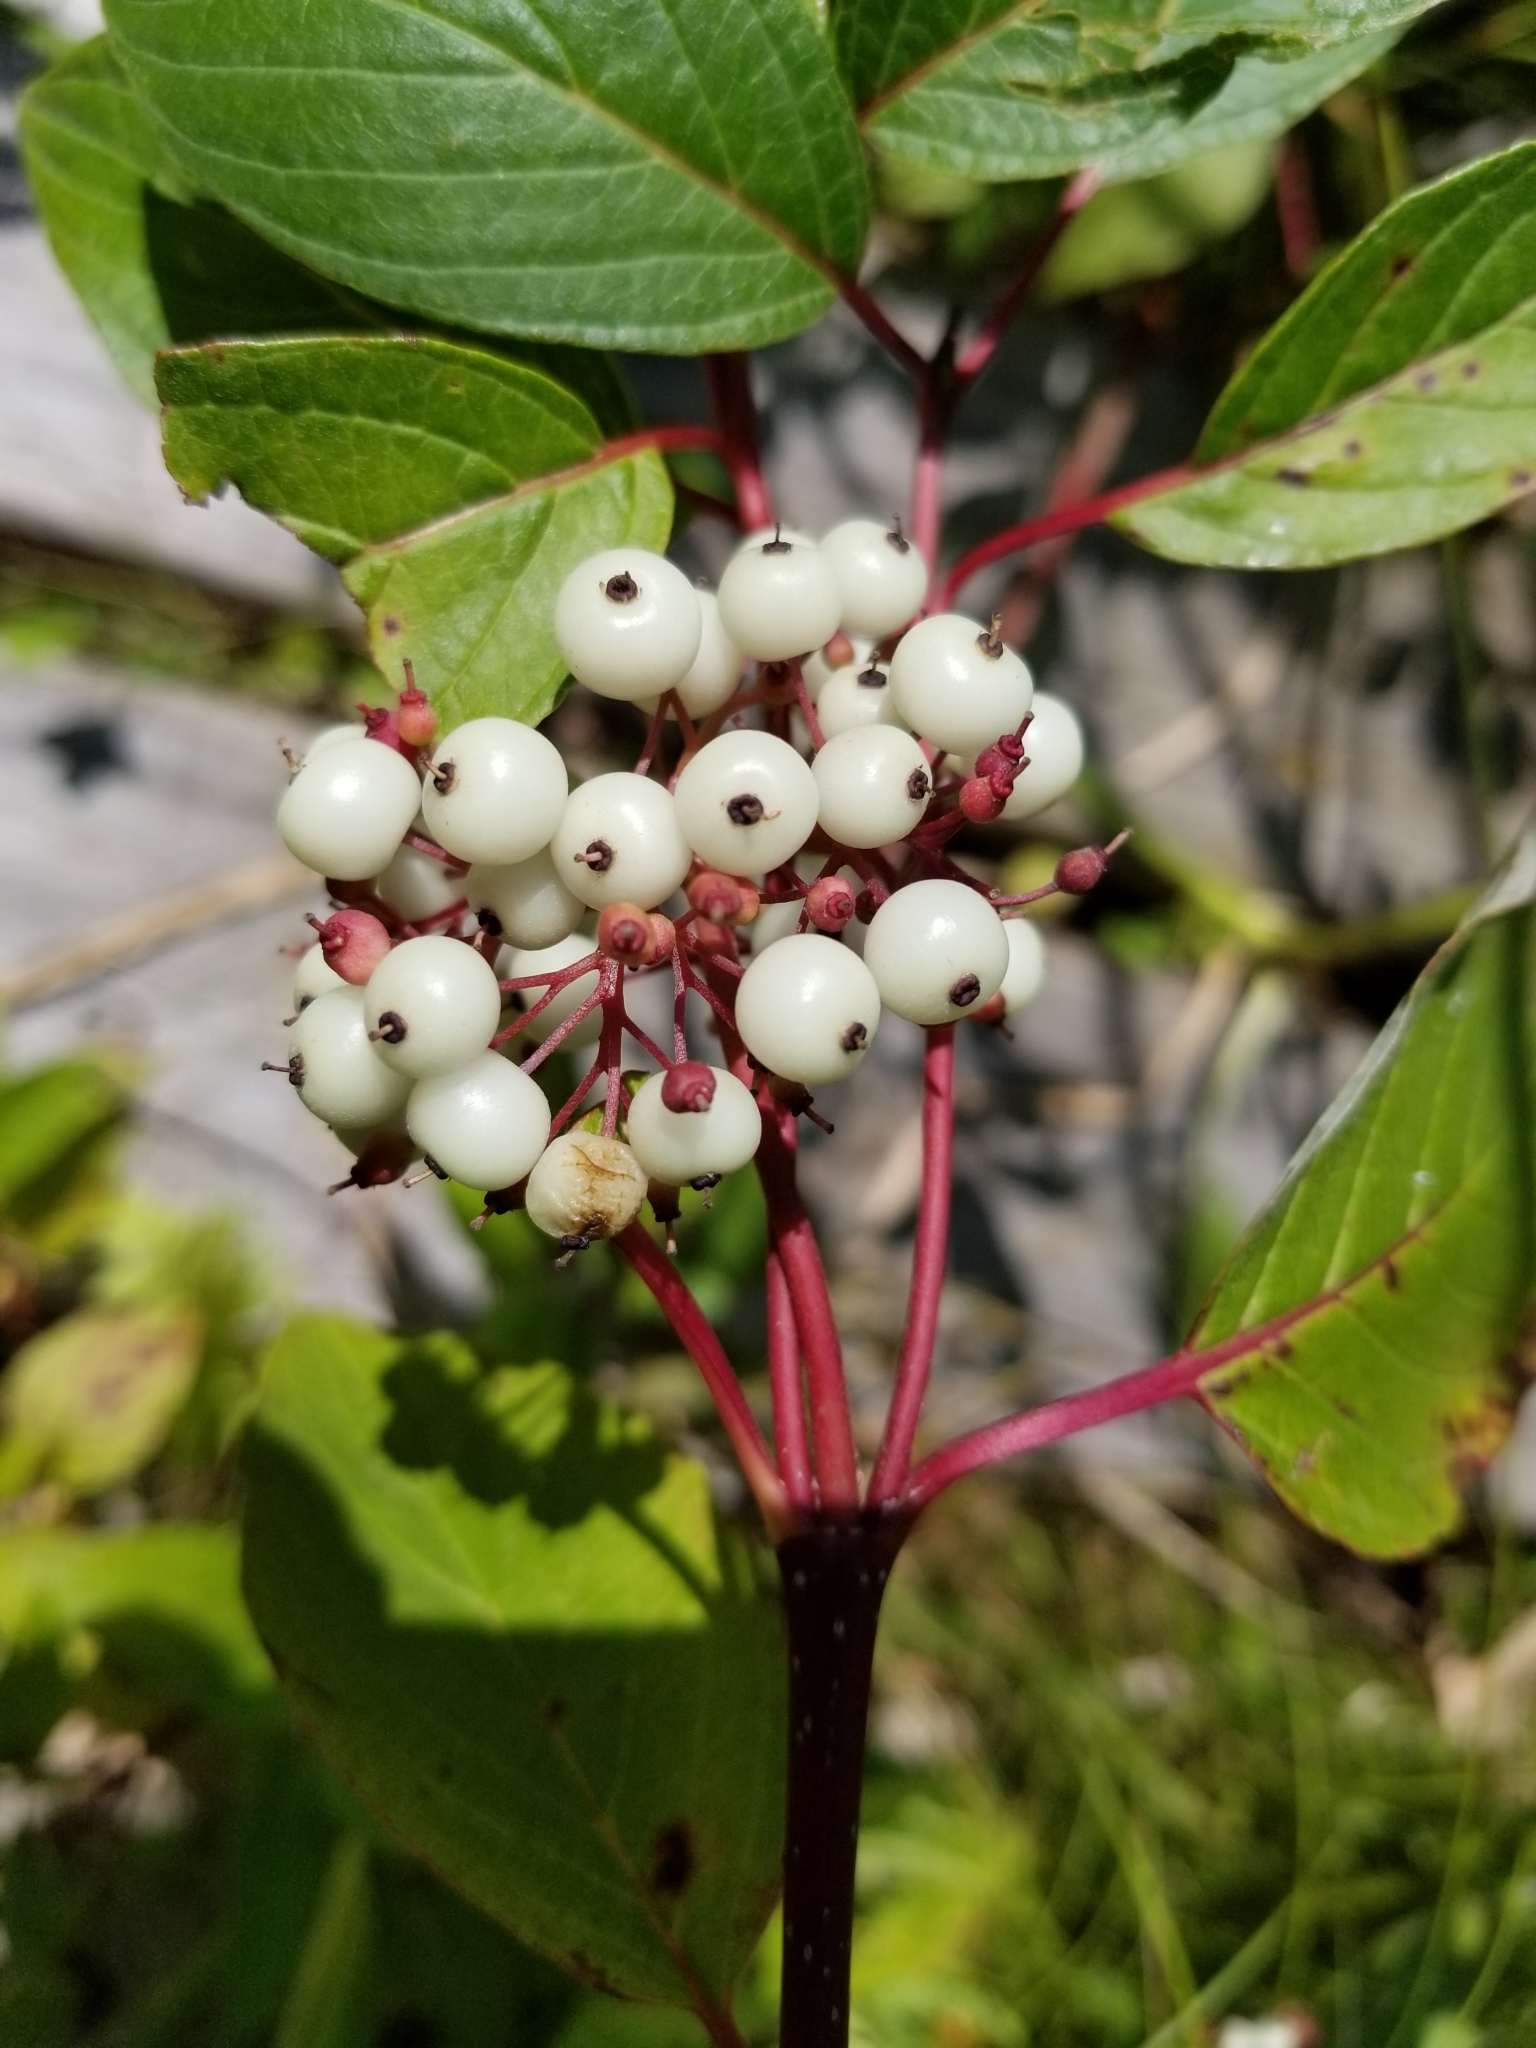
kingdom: Plantae
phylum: Tracheophyta
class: Magnoliopsida
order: Cornales
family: Cornaceae
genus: Cornus
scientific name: Cornus sericea
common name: Red-osier dogwood
